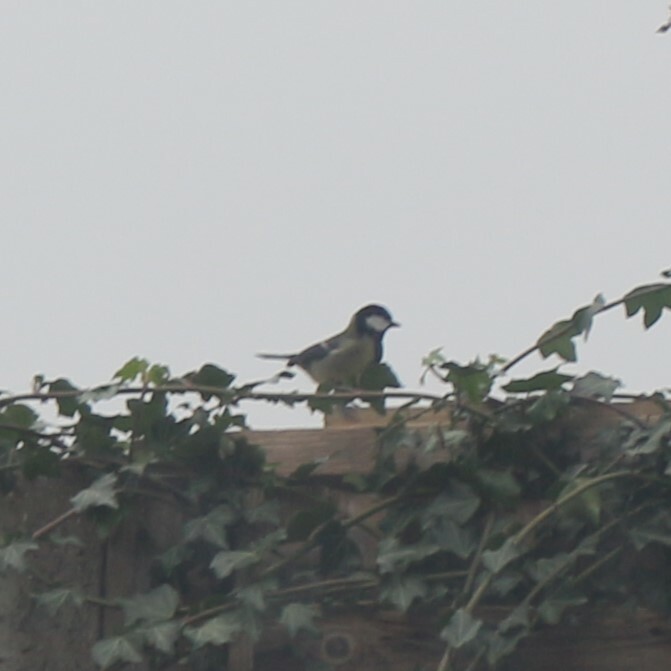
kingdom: Animalia
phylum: Chordata
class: Aves
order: Passeriformes
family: Paridae
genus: Parus
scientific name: Parus major
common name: Great tit
